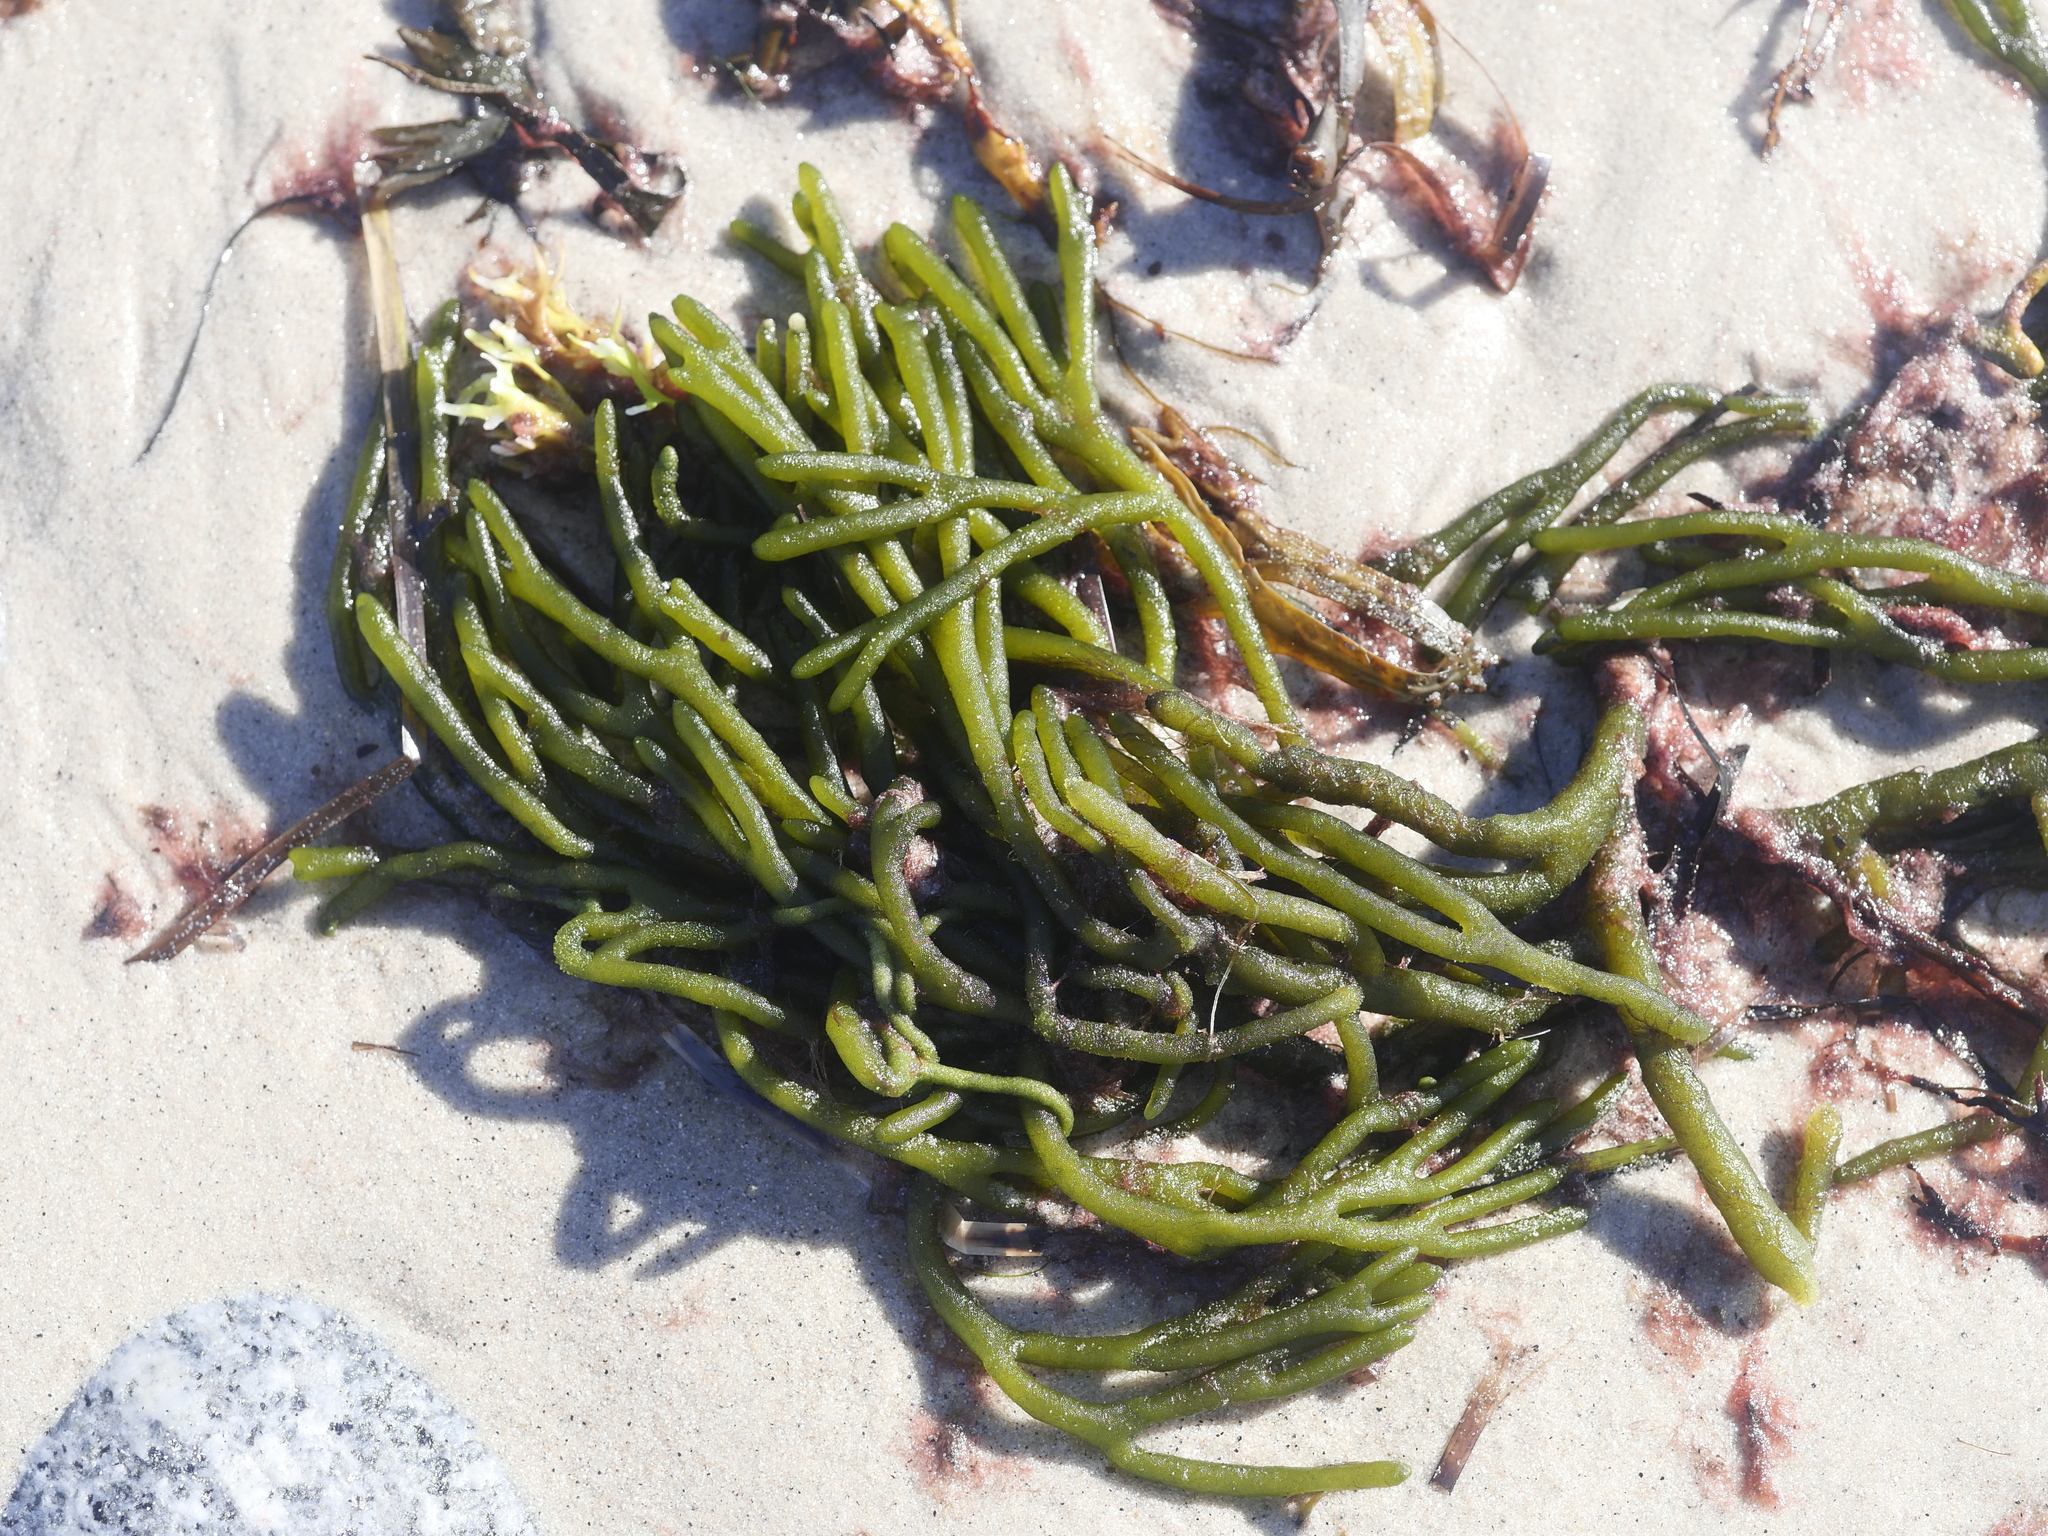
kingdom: Plantae
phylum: Chlorophyta
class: Ulvophyceae
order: Bryopsidales
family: Codiaceae
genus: Codium
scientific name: Codium fragile
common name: Dead man's fingers
